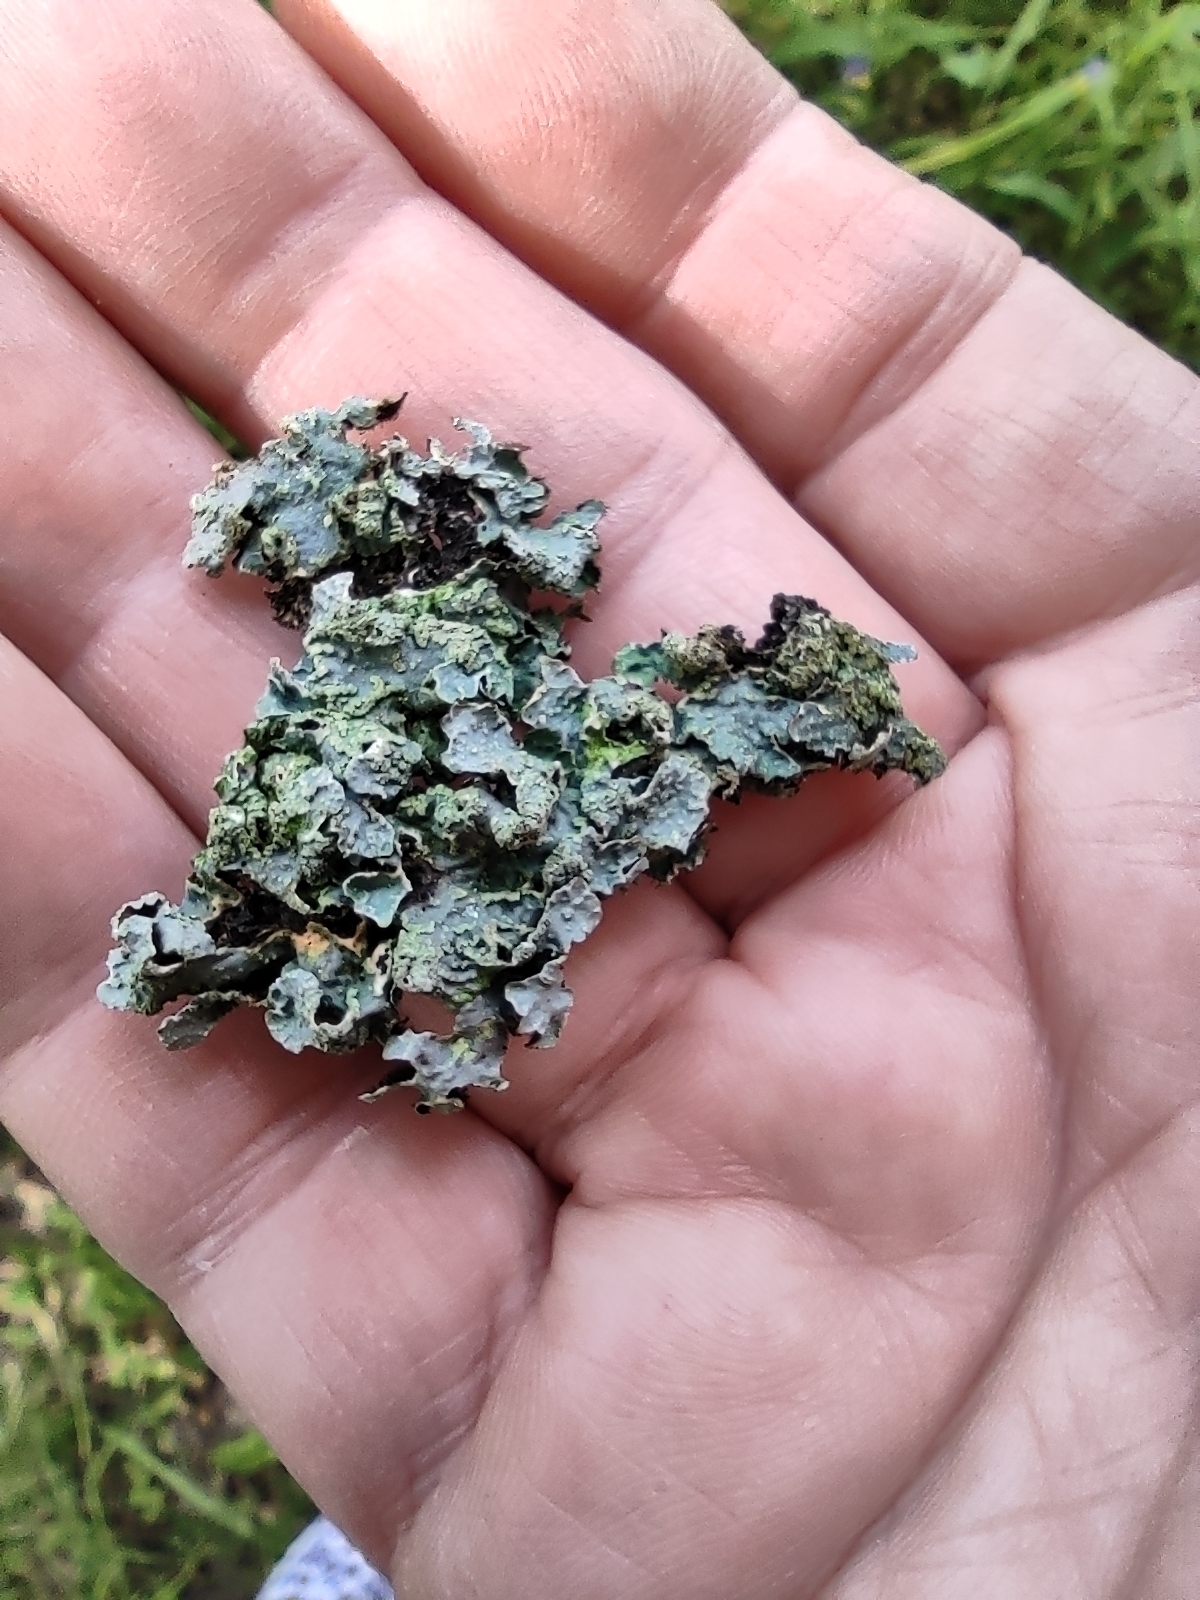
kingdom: Fungi
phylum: Ascomycota
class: Lecanoromycetes
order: Lecanorales
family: Parmeliaceae
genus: Parmelia
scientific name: Parmelia sulcata
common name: Netted shield lichen
